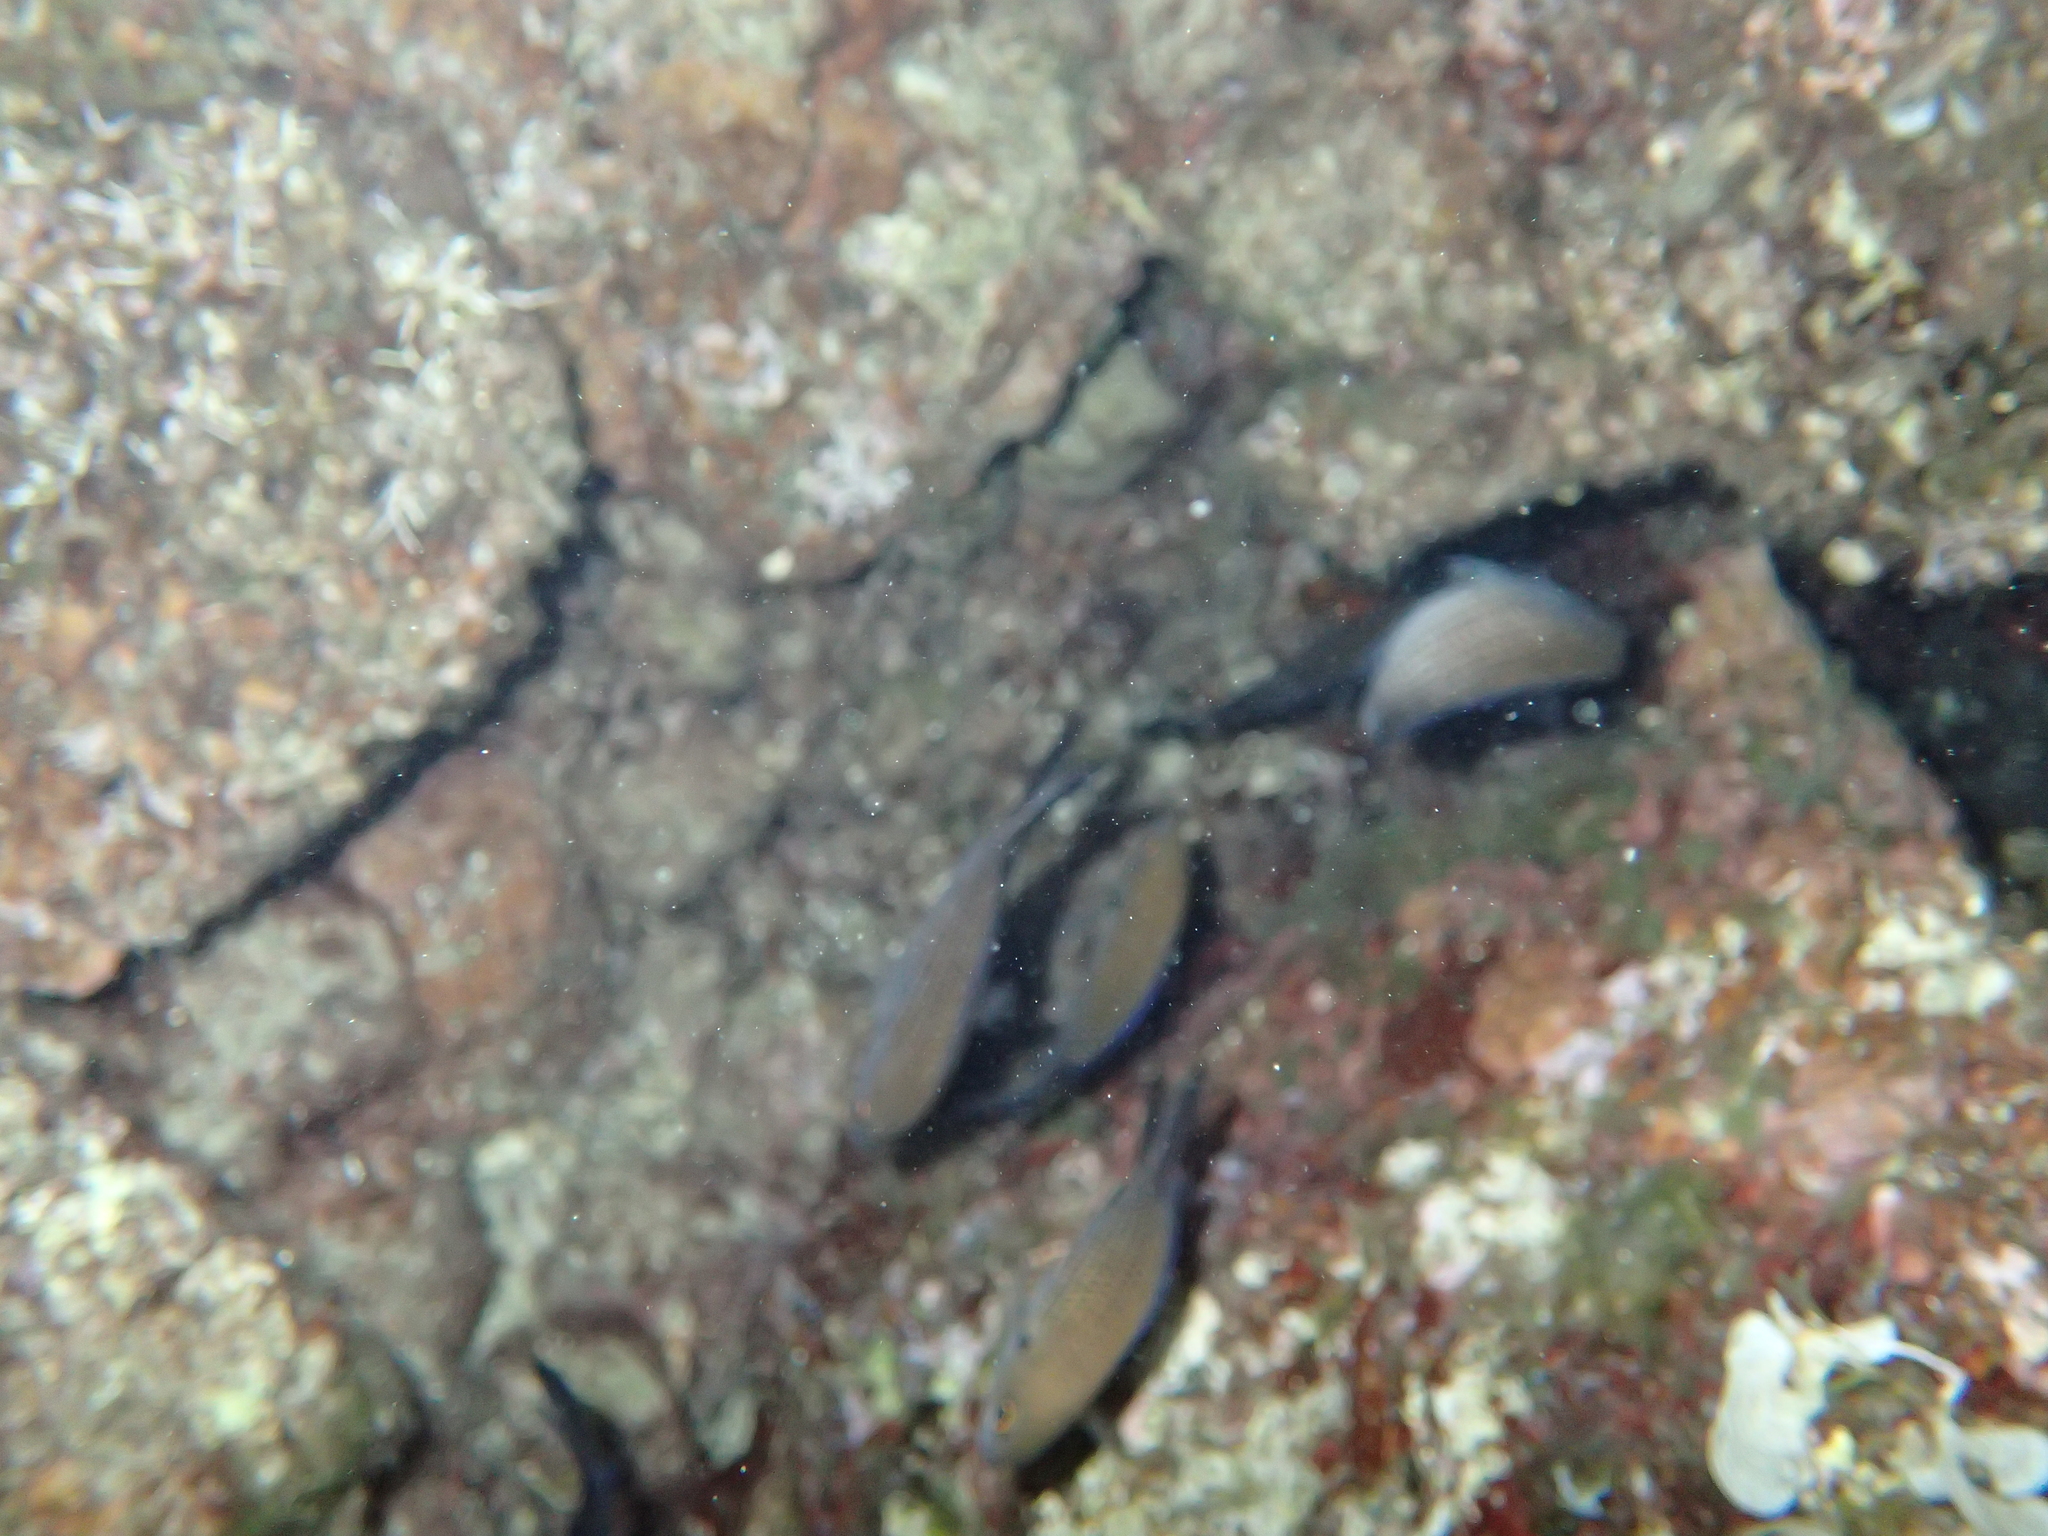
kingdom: Animalia
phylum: Chordata
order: Perciformes
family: Pomacentridae
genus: Chromis
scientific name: Chromis chromis
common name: Damselfish
